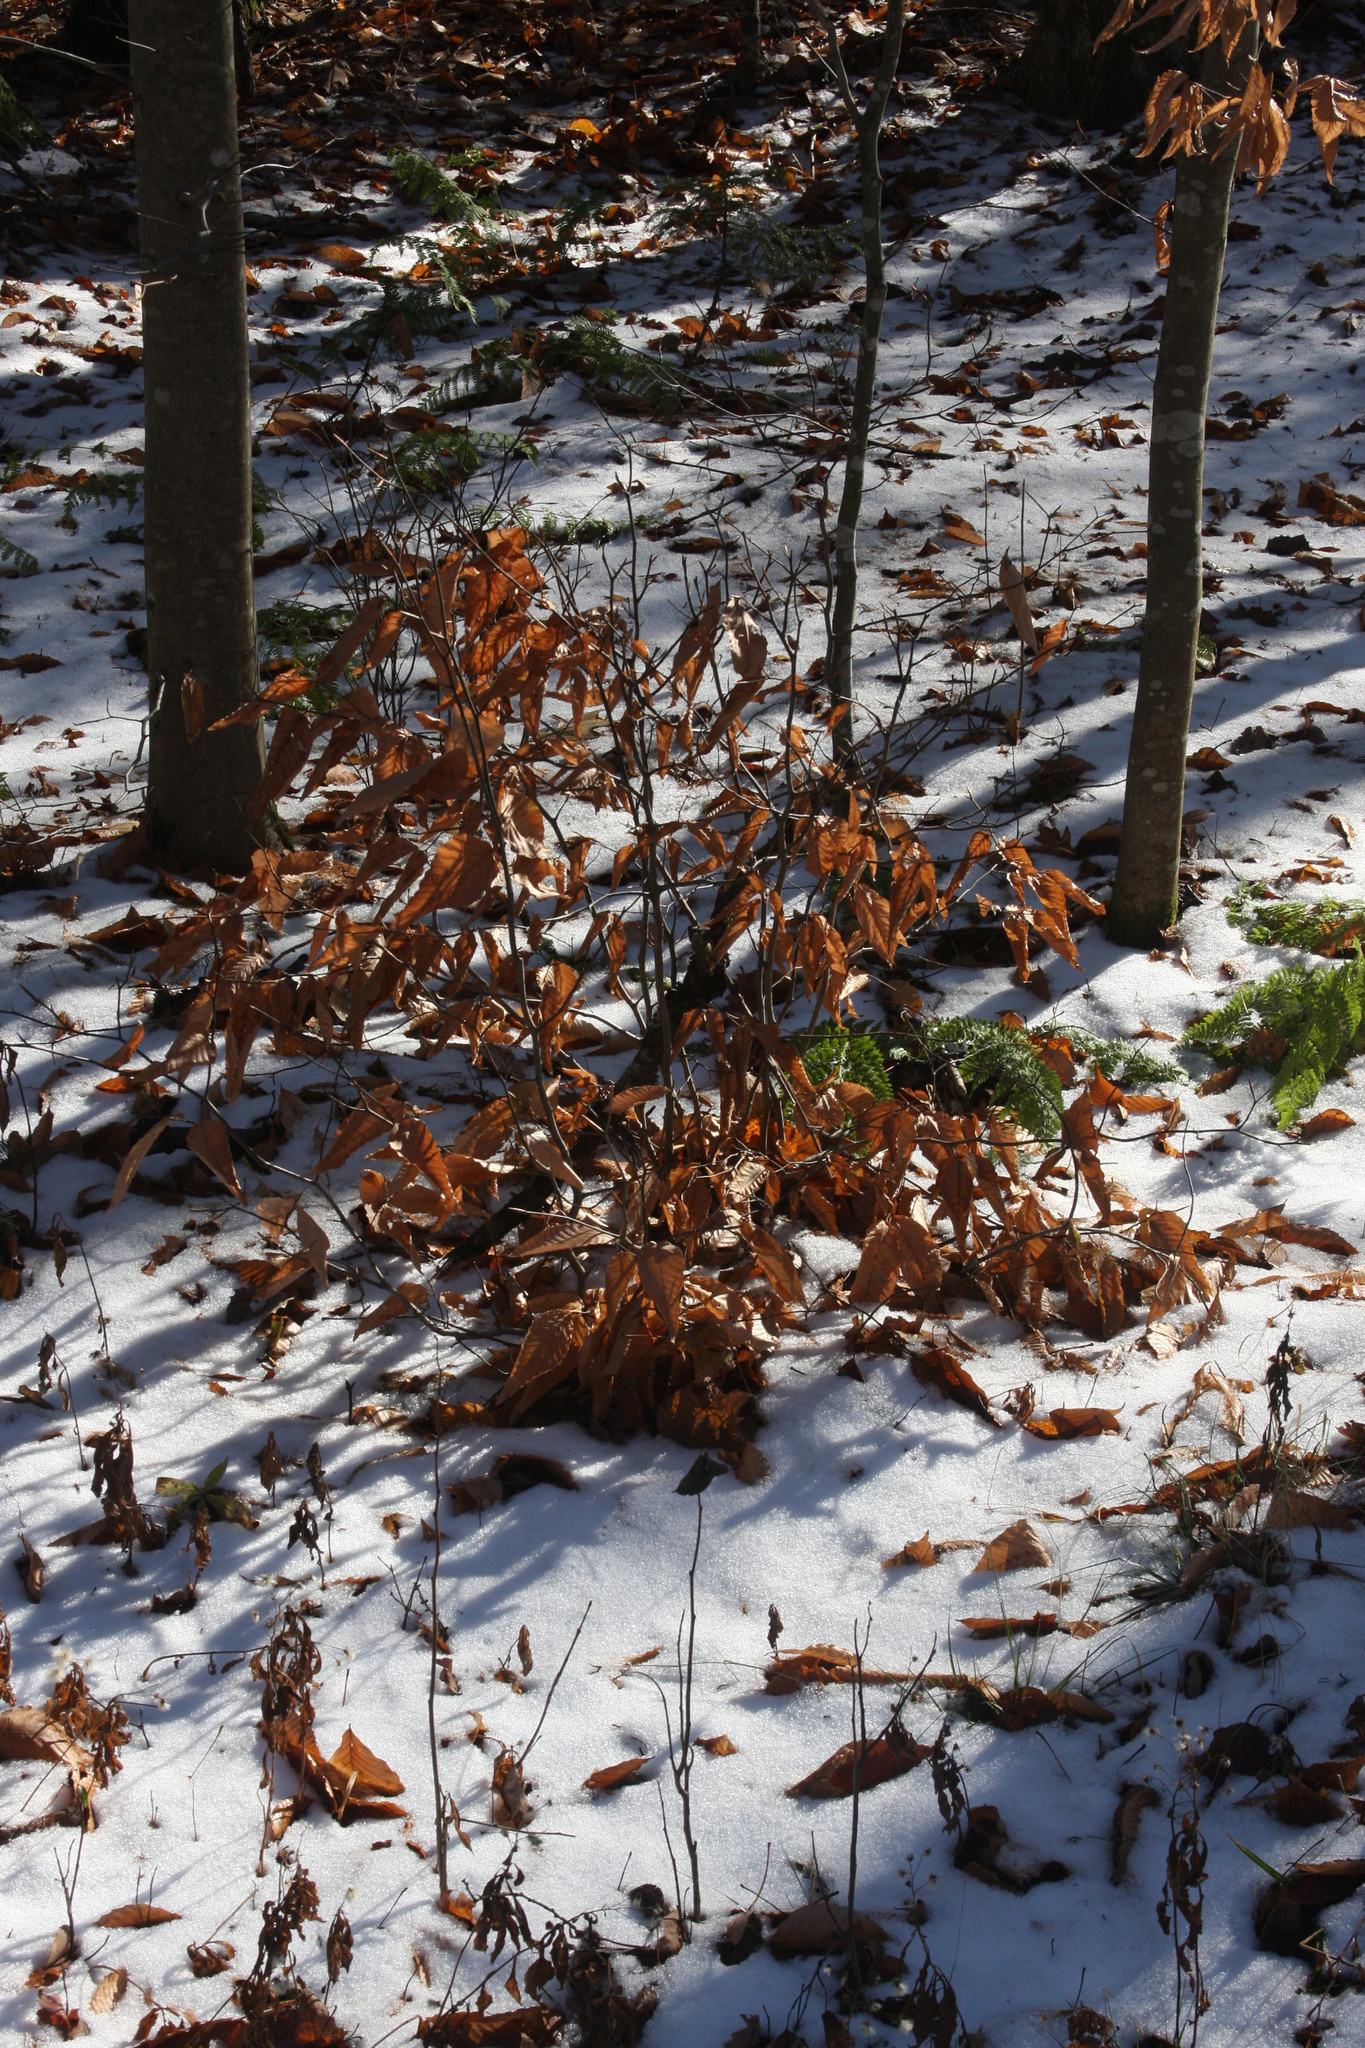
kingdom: Plantae
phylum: Tracheophyta
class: Magnoliopsida
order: Fagales
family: Fagaceae
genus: Fagus
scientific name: Fagus grandifolia
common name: American beech
